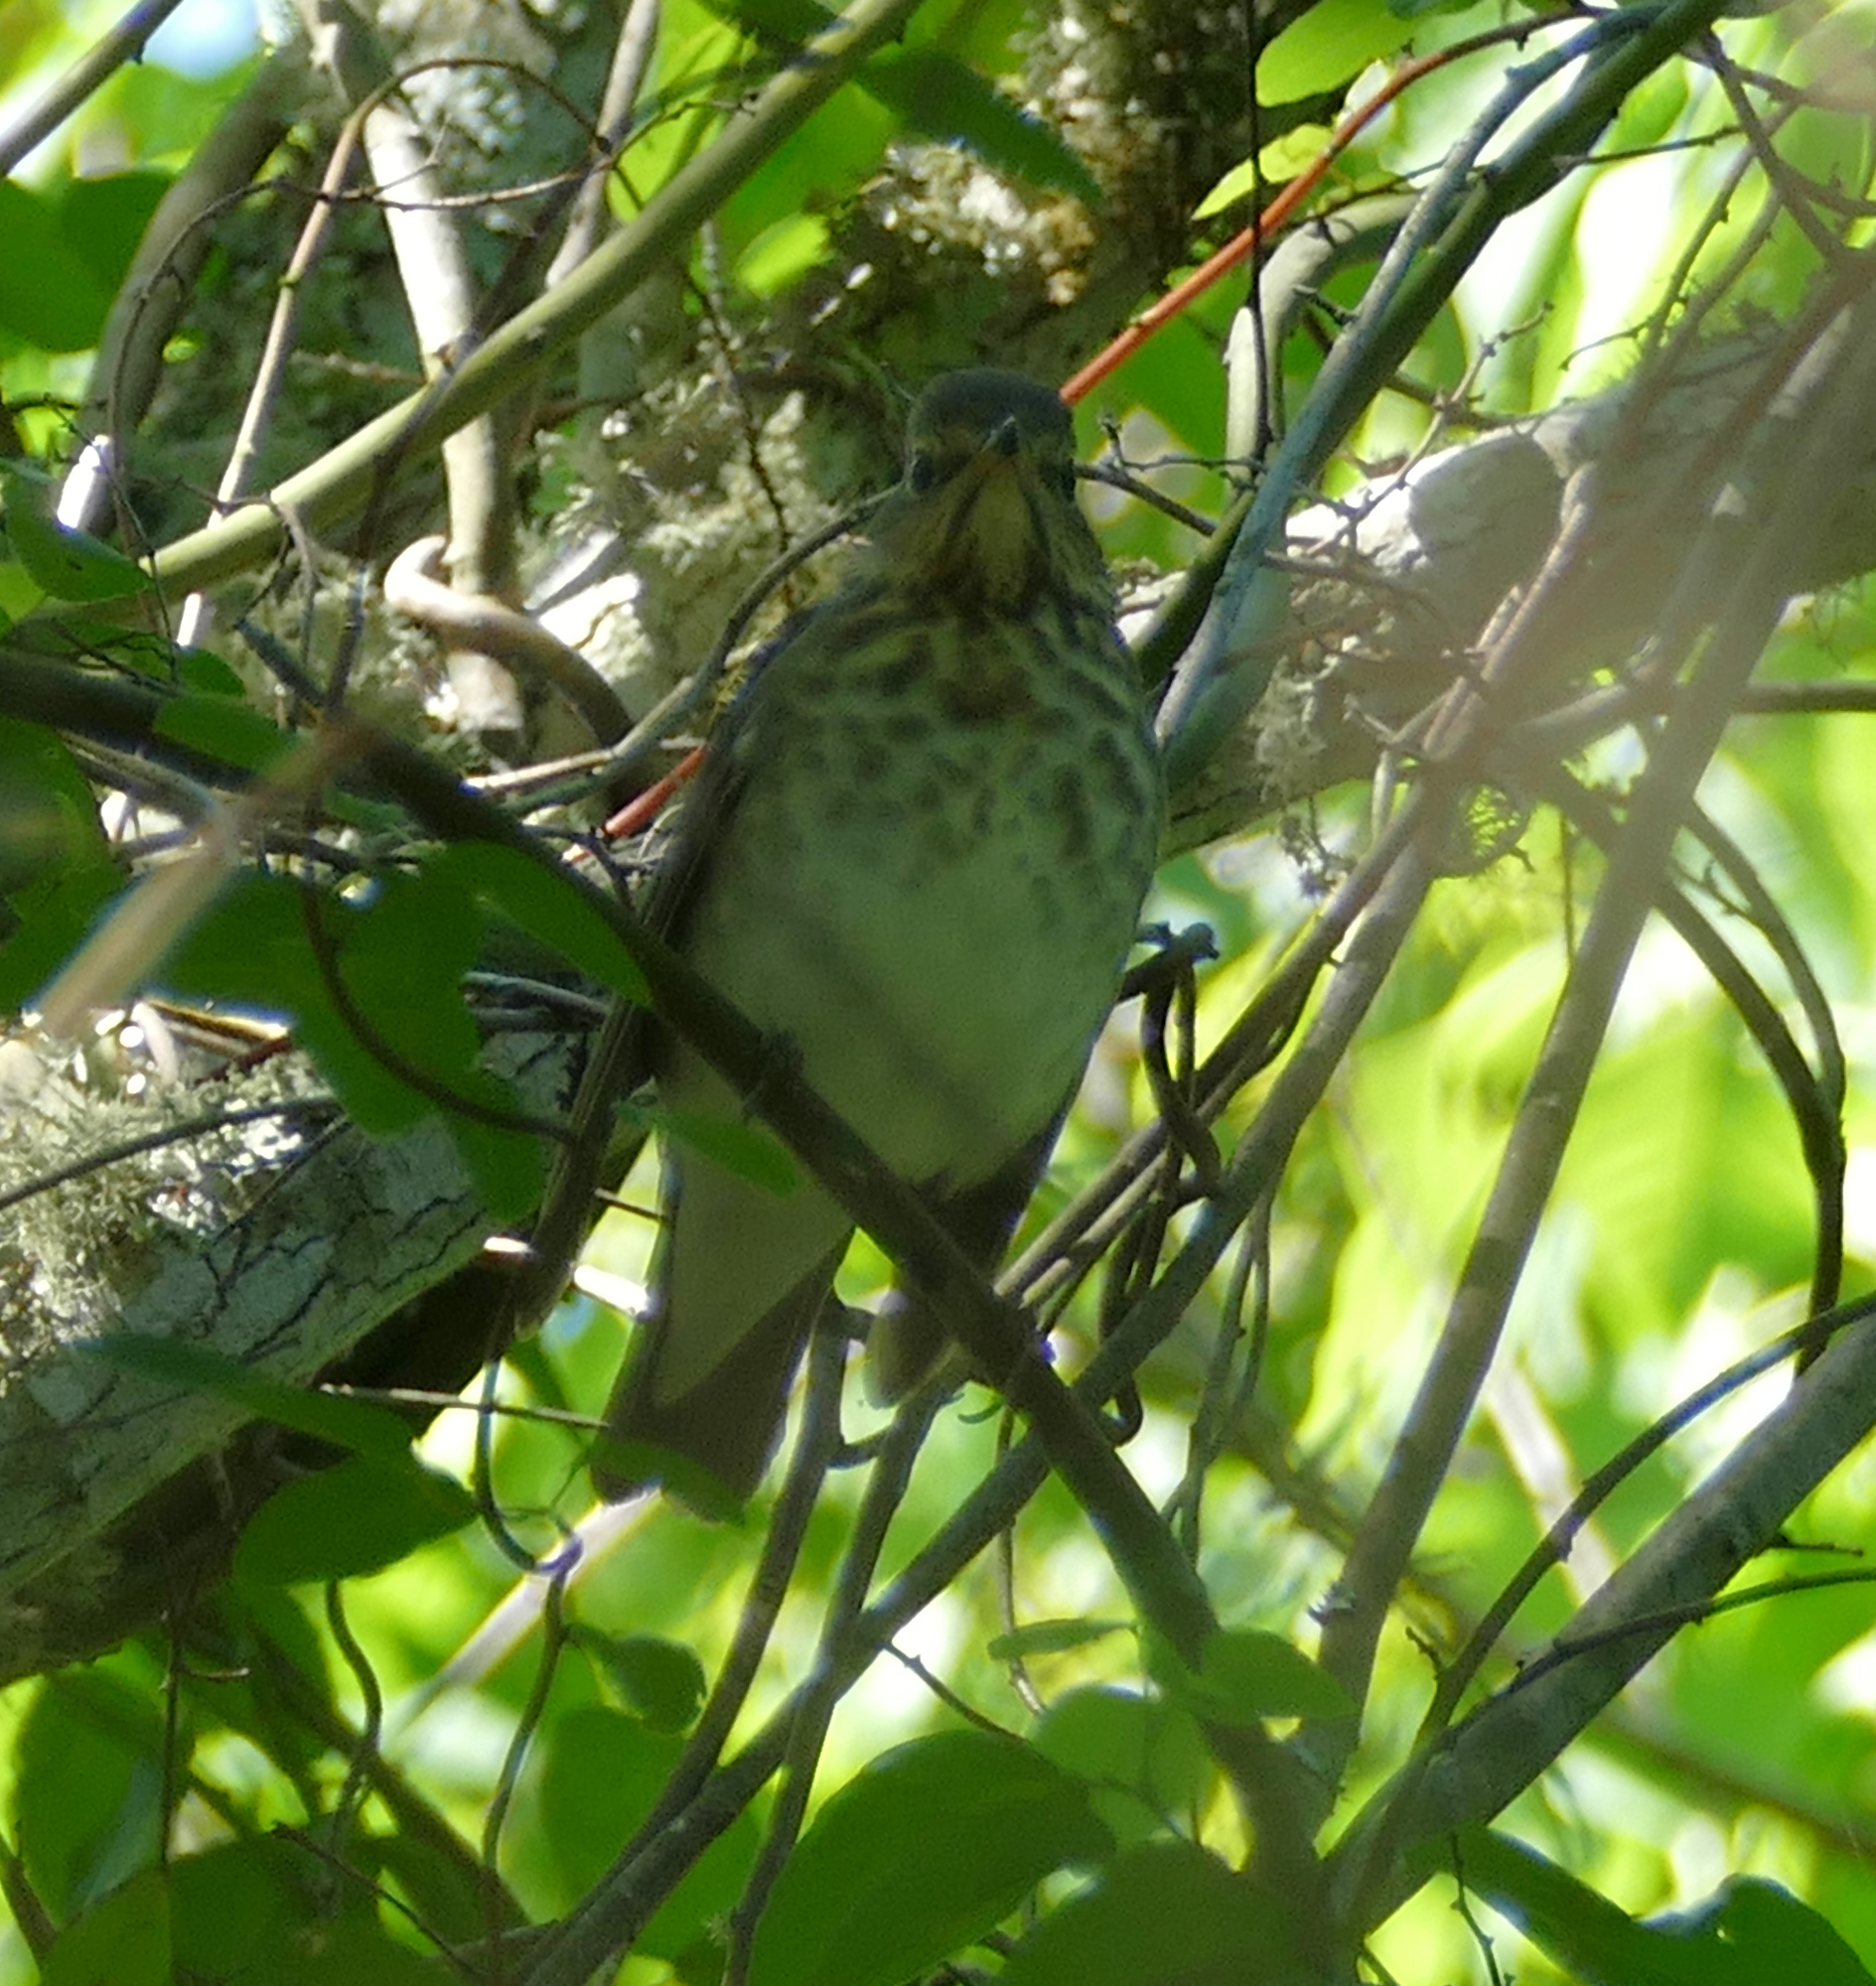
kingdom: Animalia
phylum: Chordata
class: Aves
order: Passeriformes
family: Turdidae
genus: Catharus
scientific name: Catharus ustulatus
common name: Swainson's thrush
